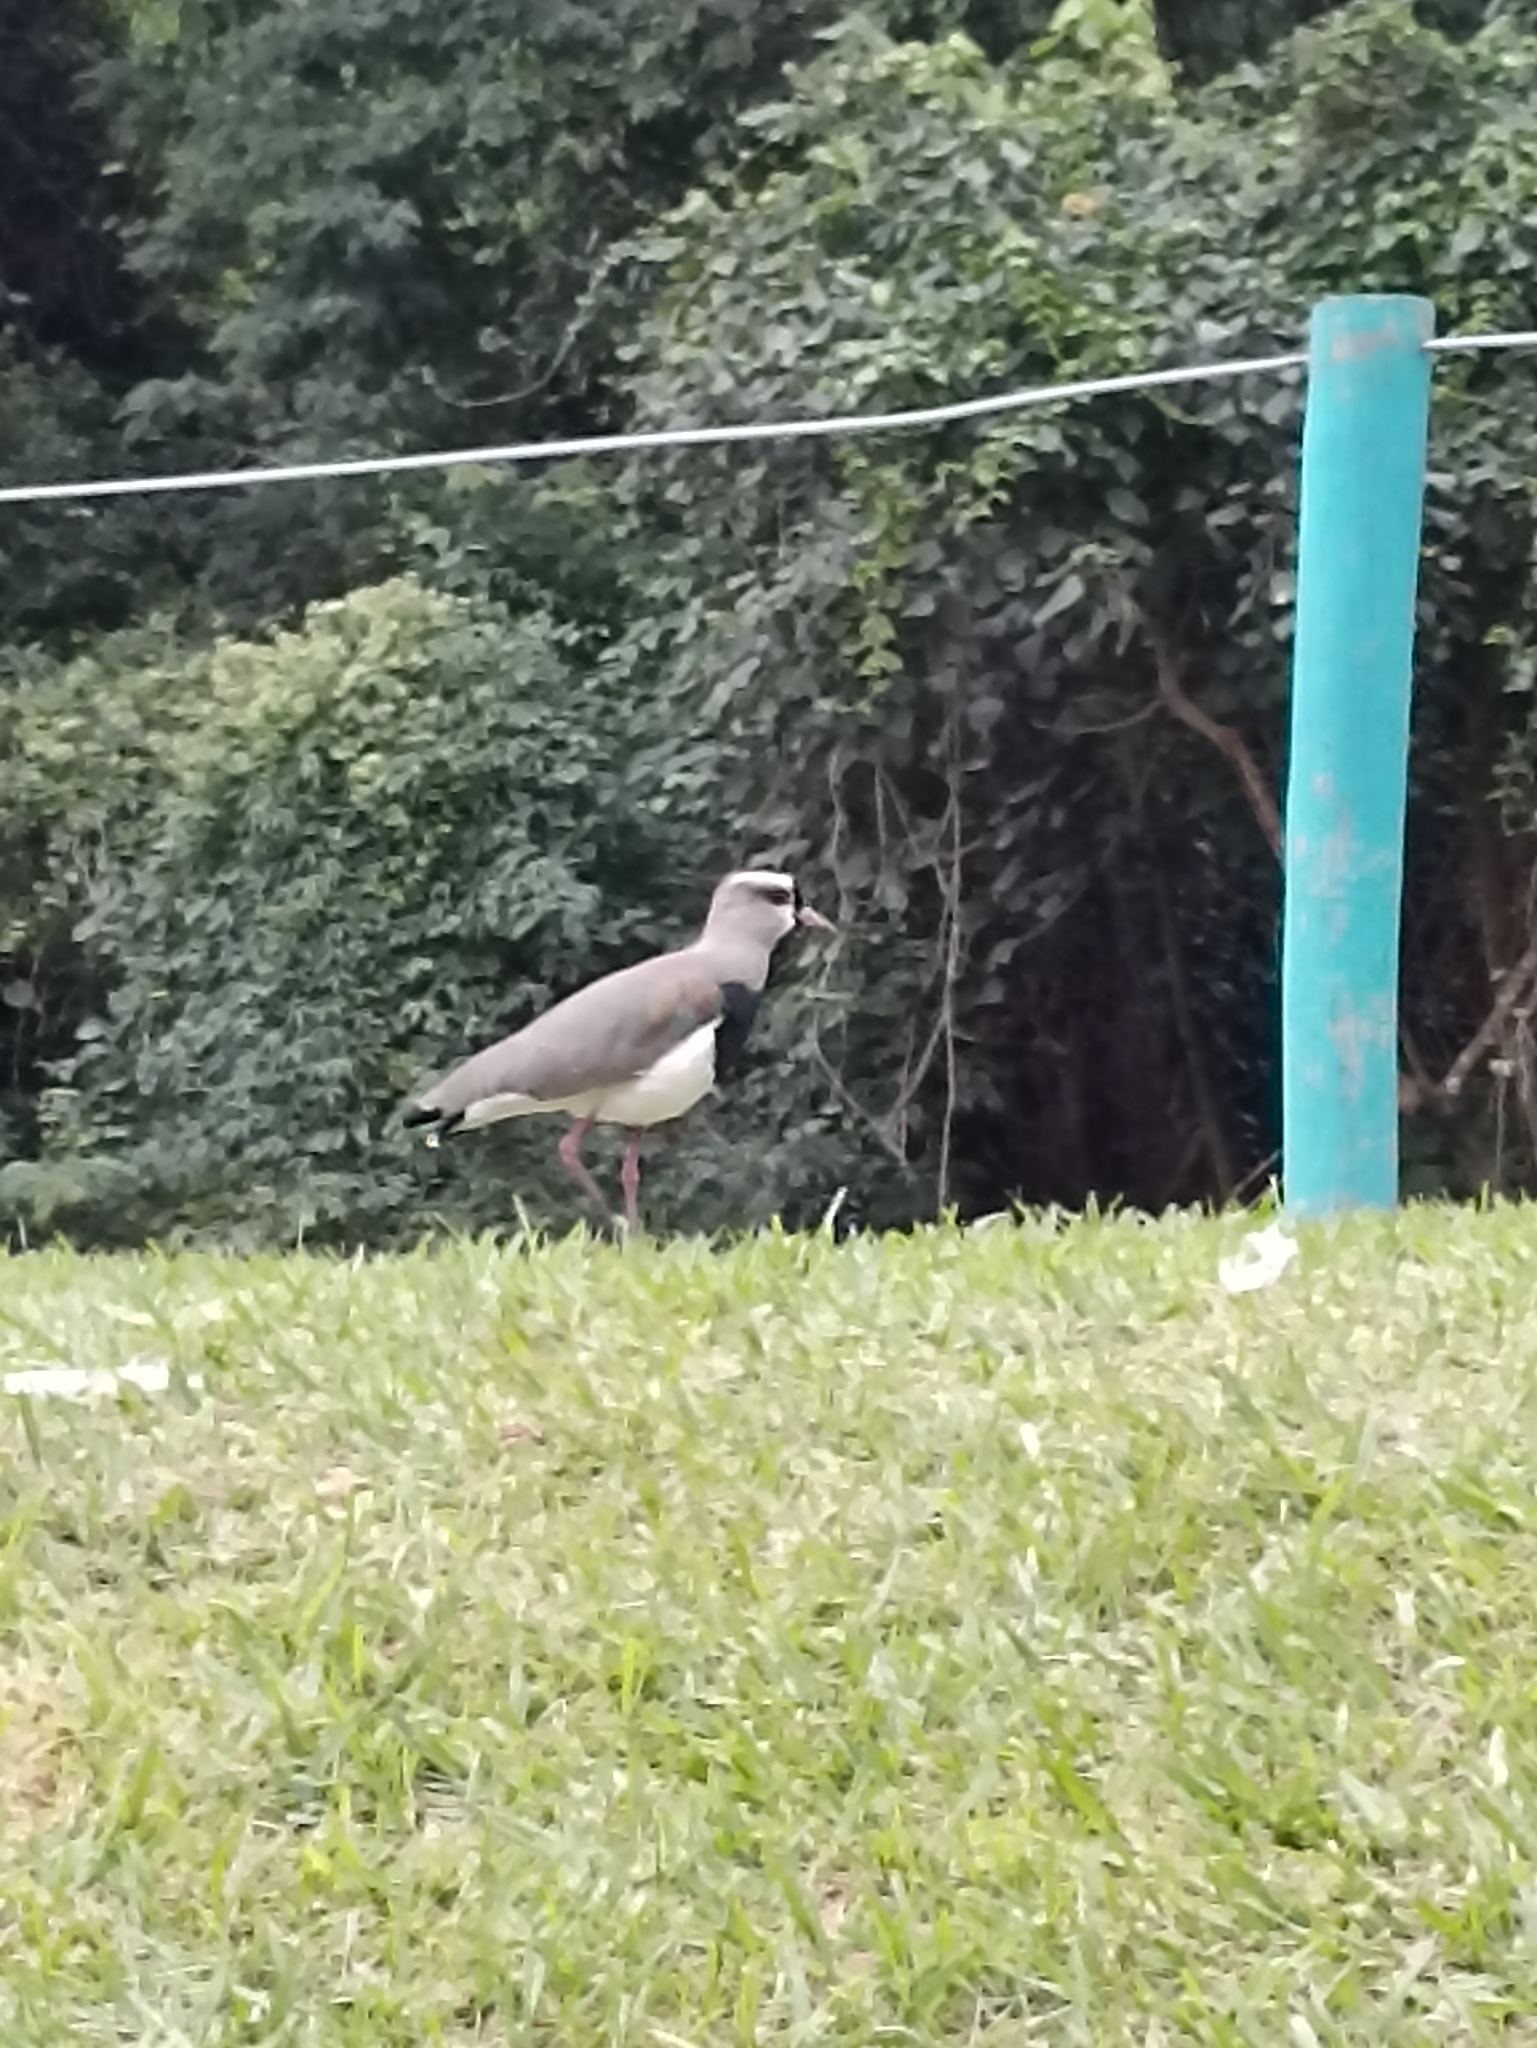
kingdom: Animalia
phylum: Chordata
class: Aves
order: Charadriiformes
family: Charadriidae
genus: Vanellus
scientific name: Vanellus chilensis
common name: Southern lapwing
